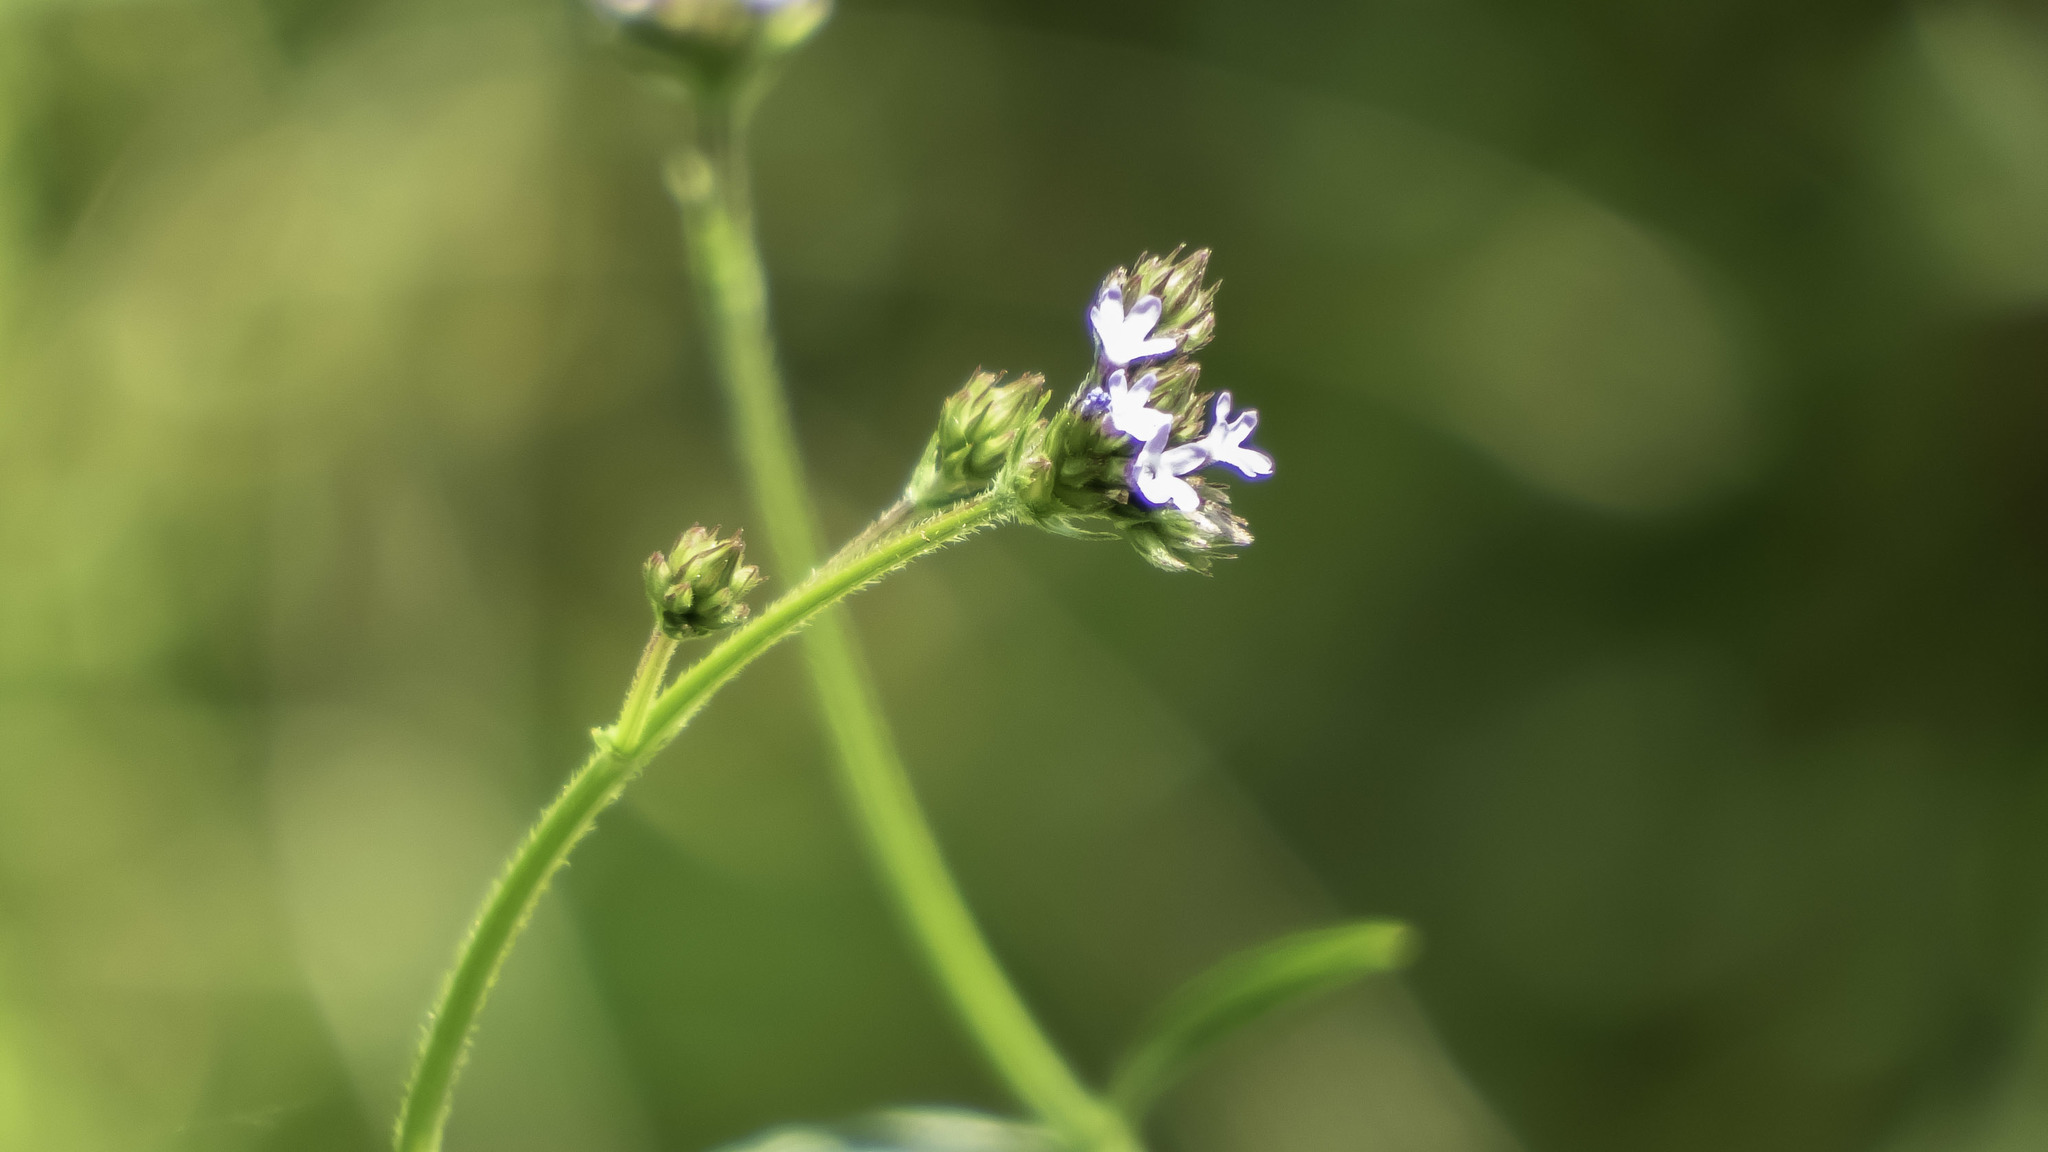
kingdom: Plantae
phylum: Tracheophyta
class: Magnoliopsida
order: Lamiales
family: Verbenaceae
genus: Verbena
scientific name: Verbena brasiliensis
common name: Brazilian vervain
